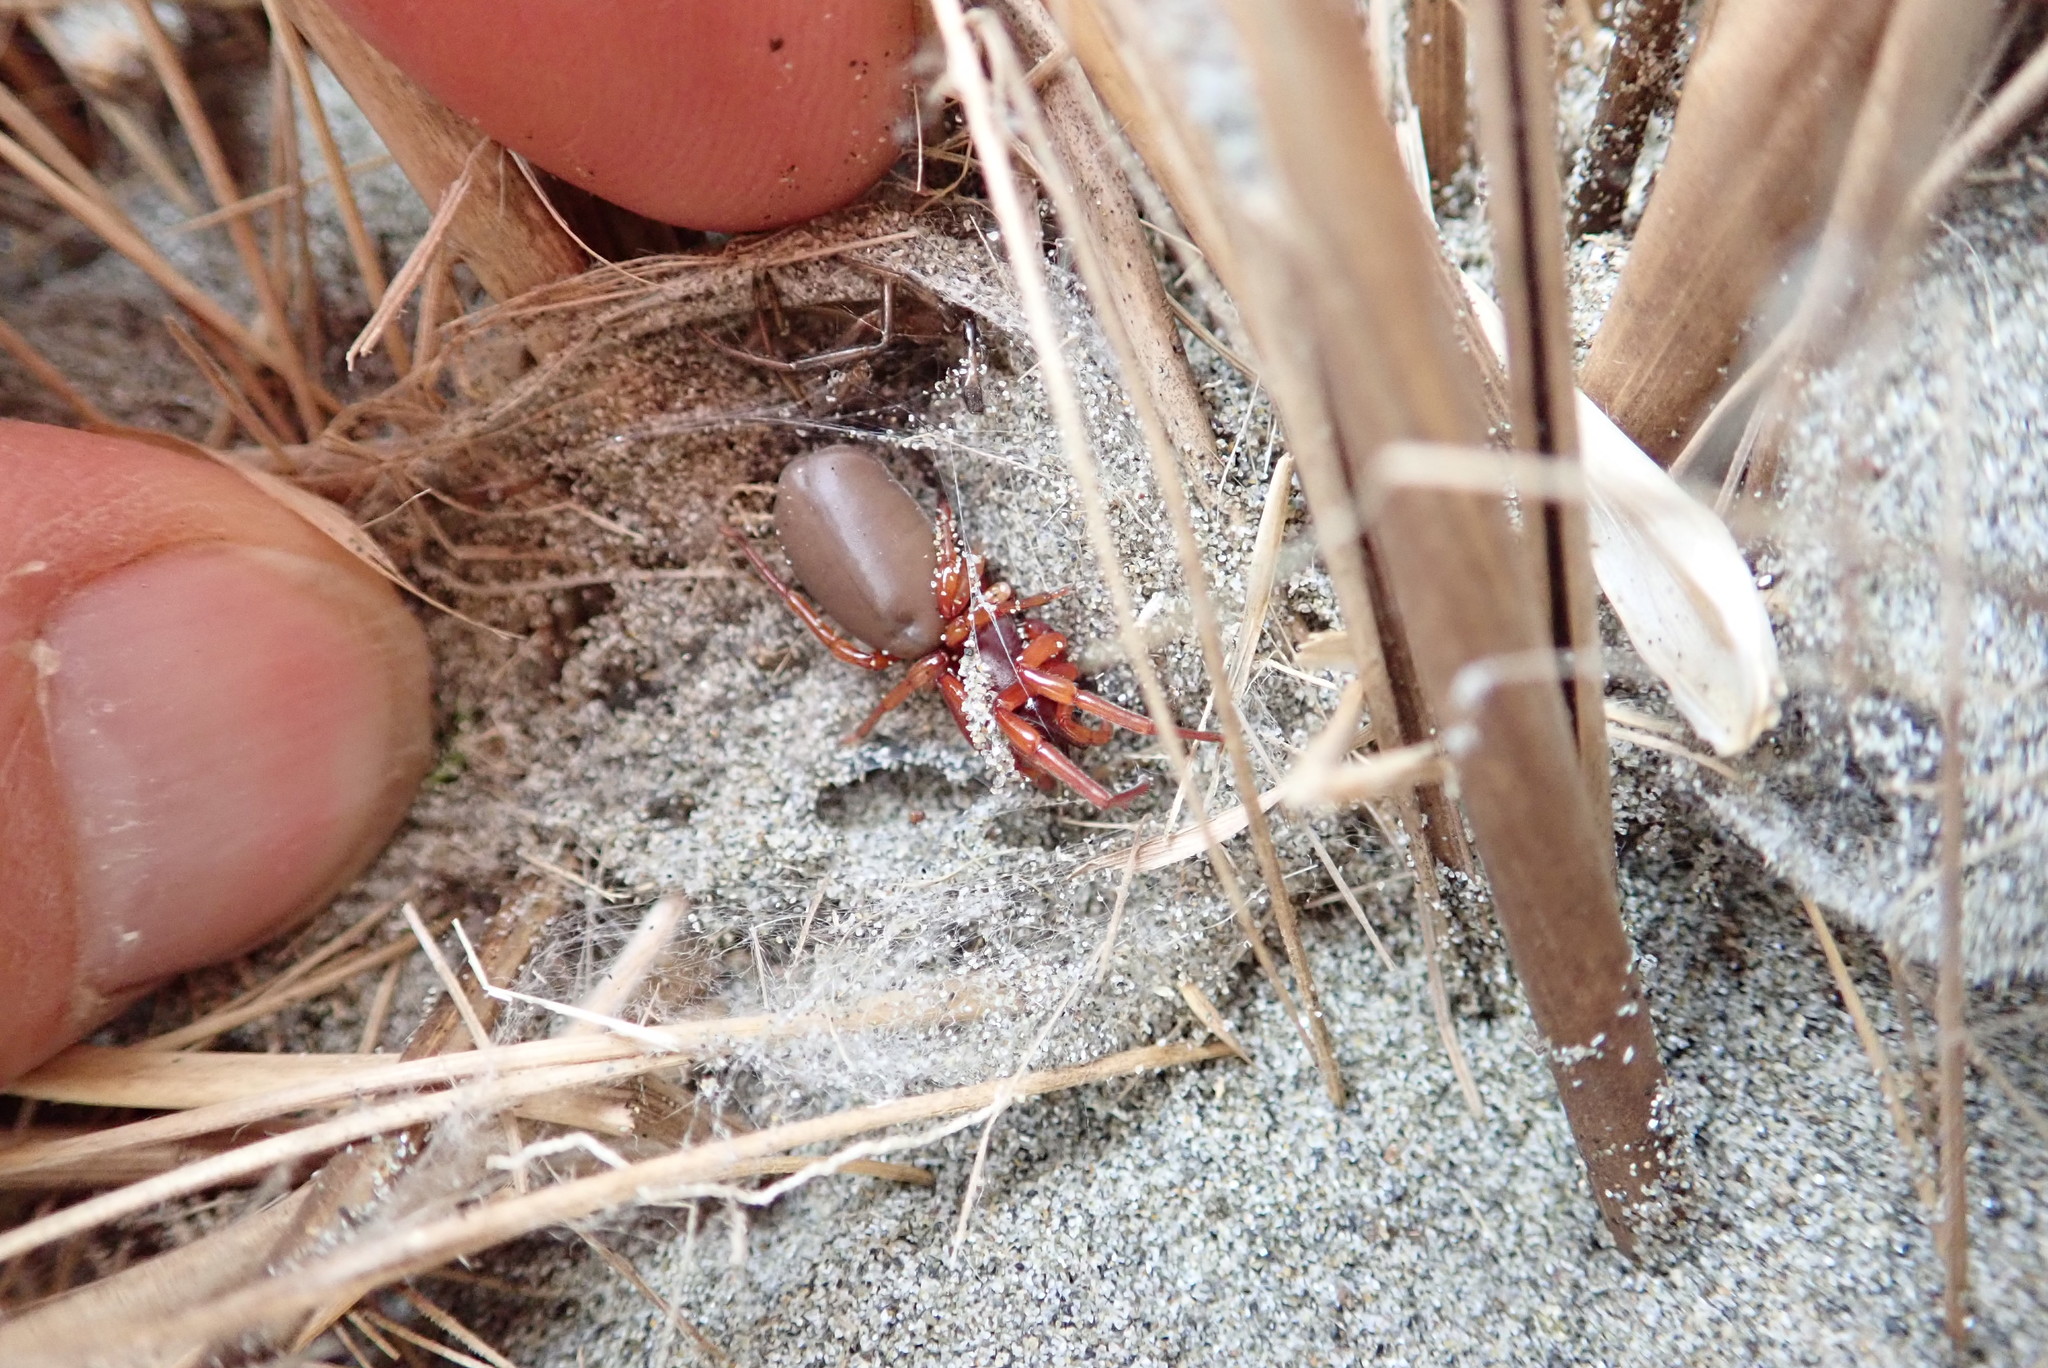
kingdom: Animalia
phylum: Arthropoda
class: Arachnida
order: Araneae
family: Dysderidae
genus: Dysdera
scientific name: Dysdera crocata
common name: Woodlouse spider
